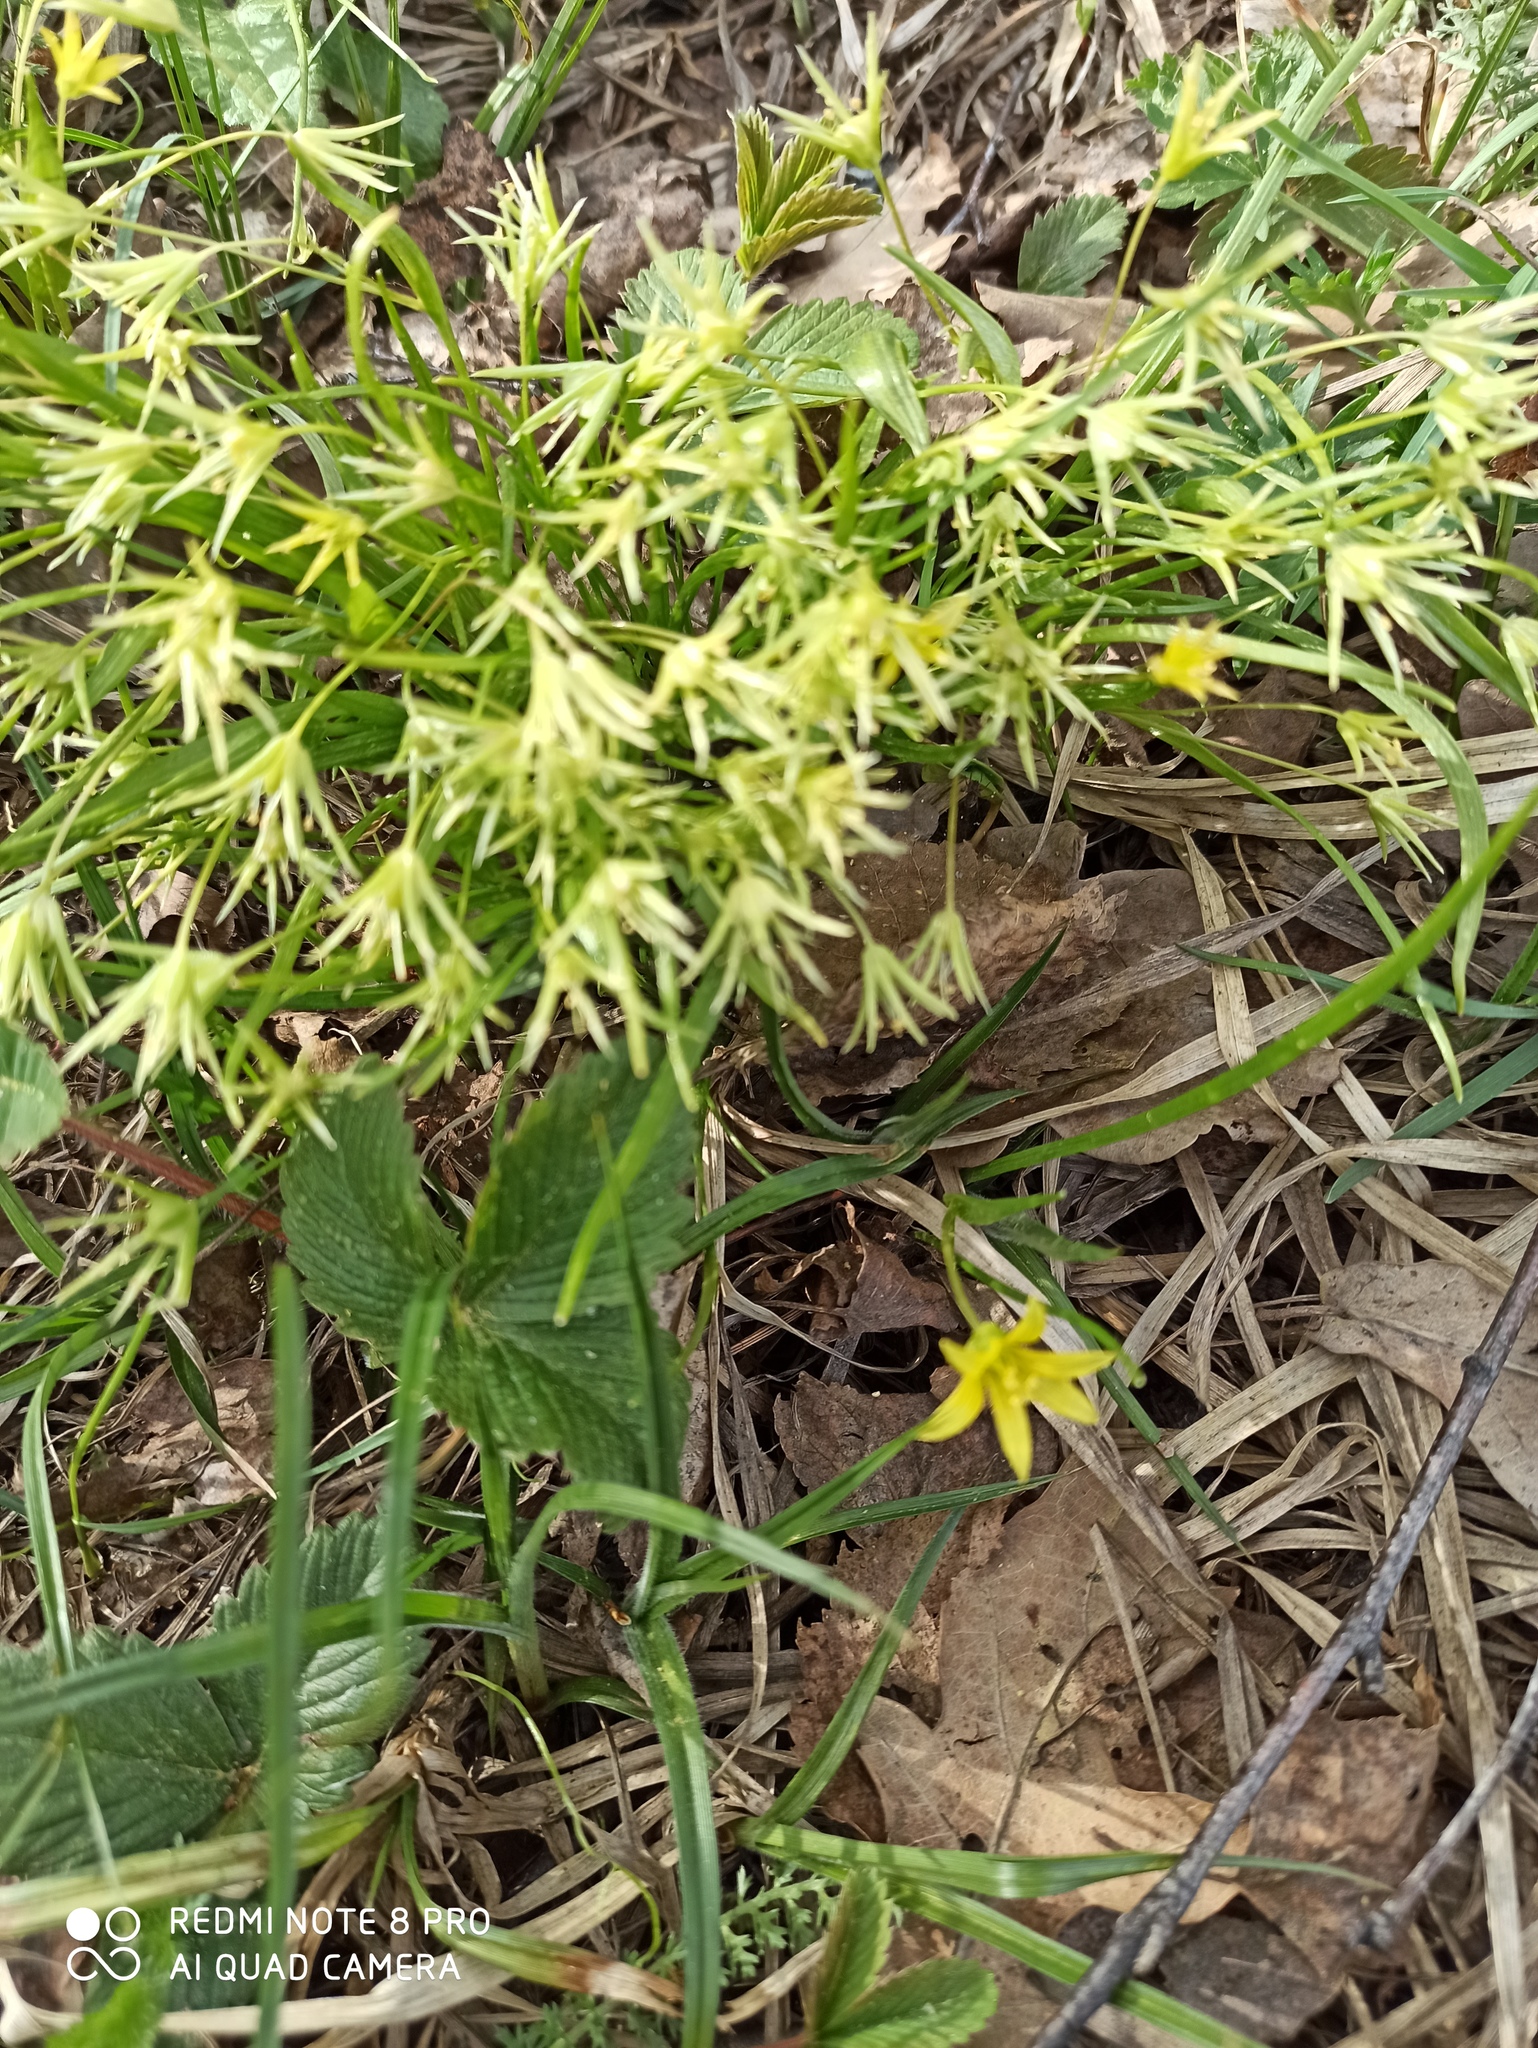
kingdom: Plantae
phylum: Tracheophyta
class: Liliopsida
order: Liliales
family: Liliaceae
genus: Gagea
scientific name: Gagea minima
